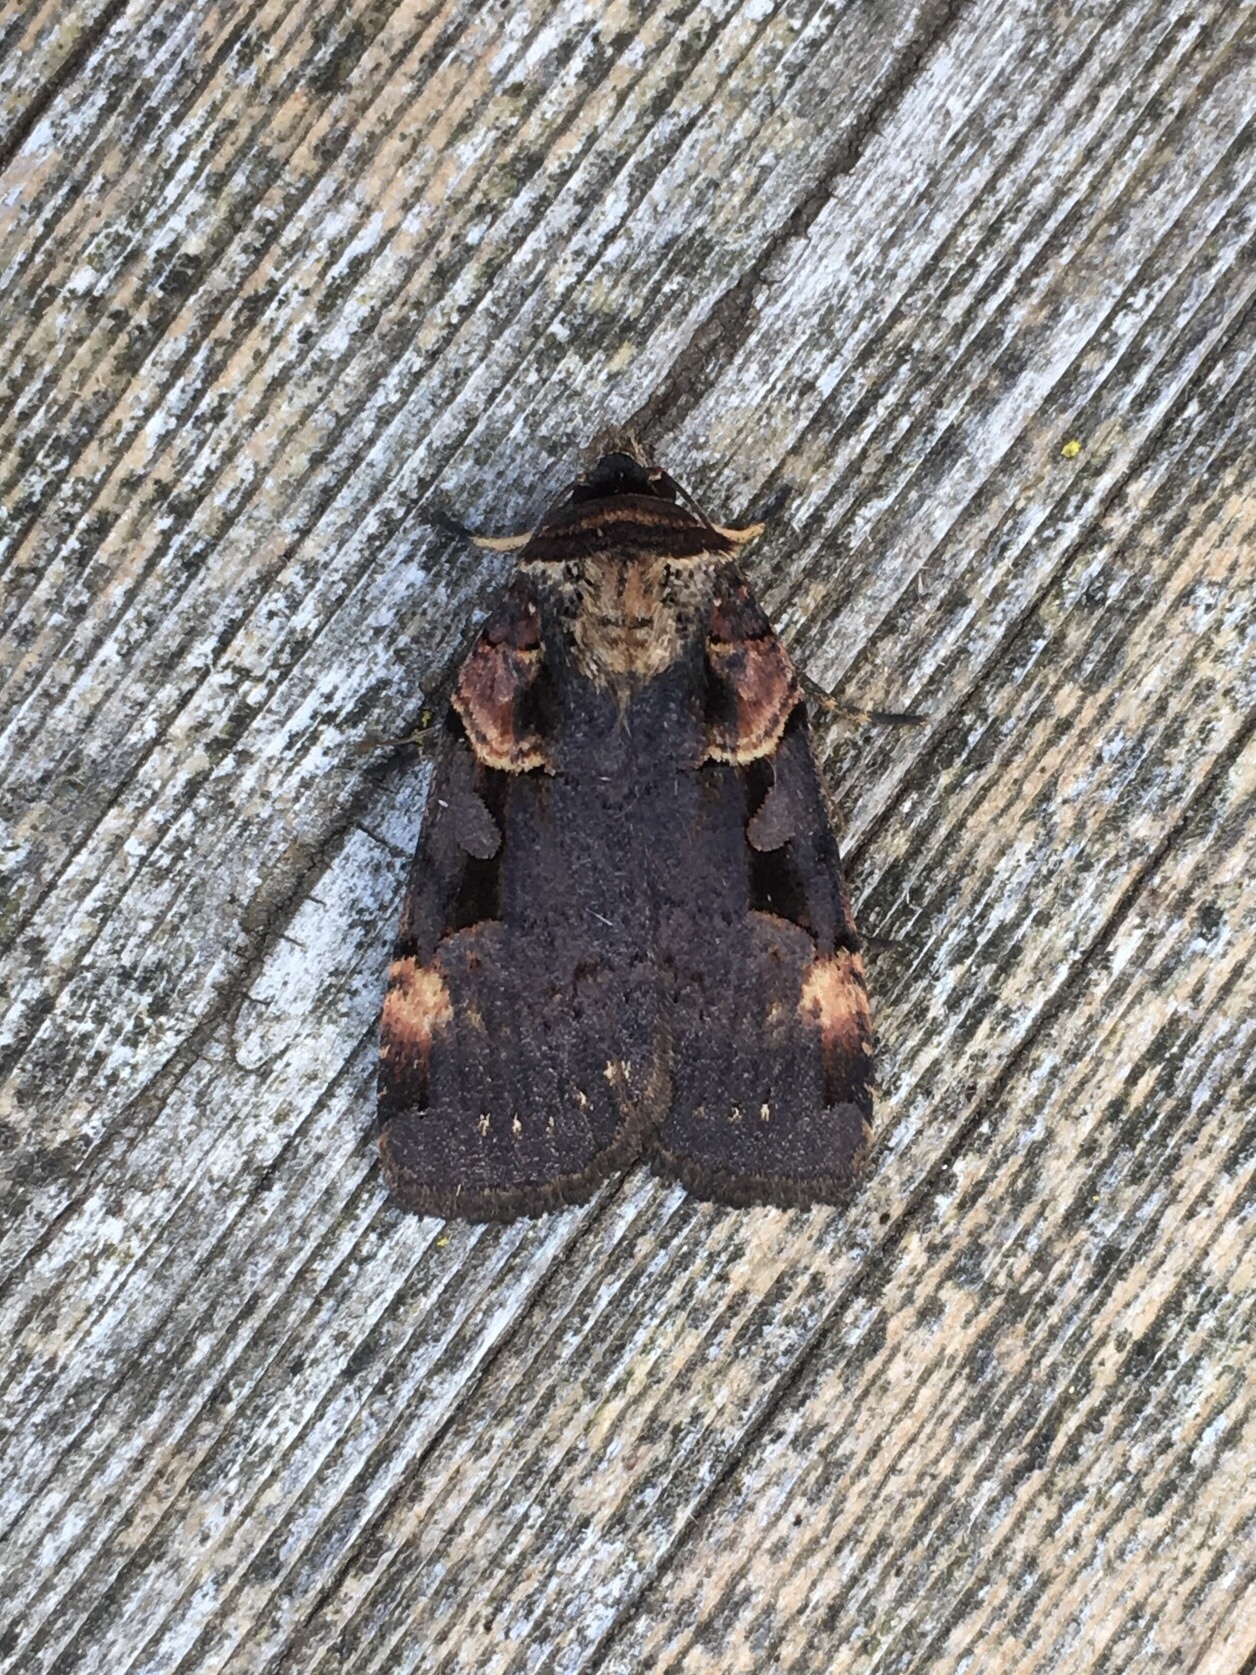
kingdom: Animalia
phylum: Arthropoda
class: Insecta
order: Lepidoptera
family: Noctuidae
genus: Pseudohermonassa
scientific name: Pseudohermonassa bicarnea
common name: Pink spotted dart
